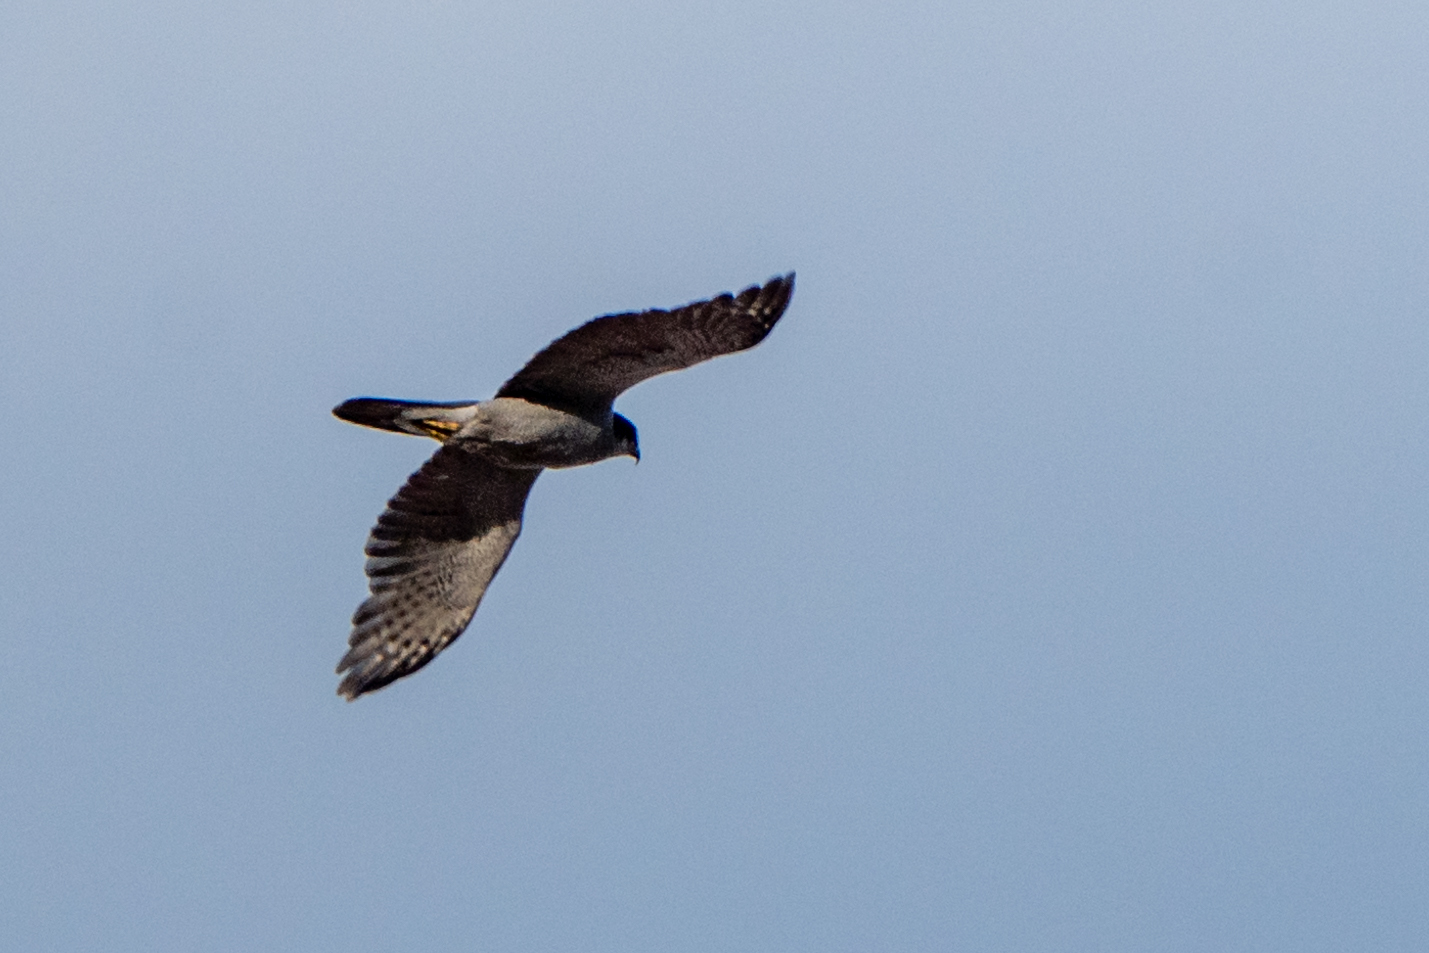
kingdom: Animalia
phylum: Chordata
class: Aves
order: Accipitriformes
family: Accipitridae
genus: Accipiter
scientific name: Accipiter gentilis
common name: Northern goshawk
